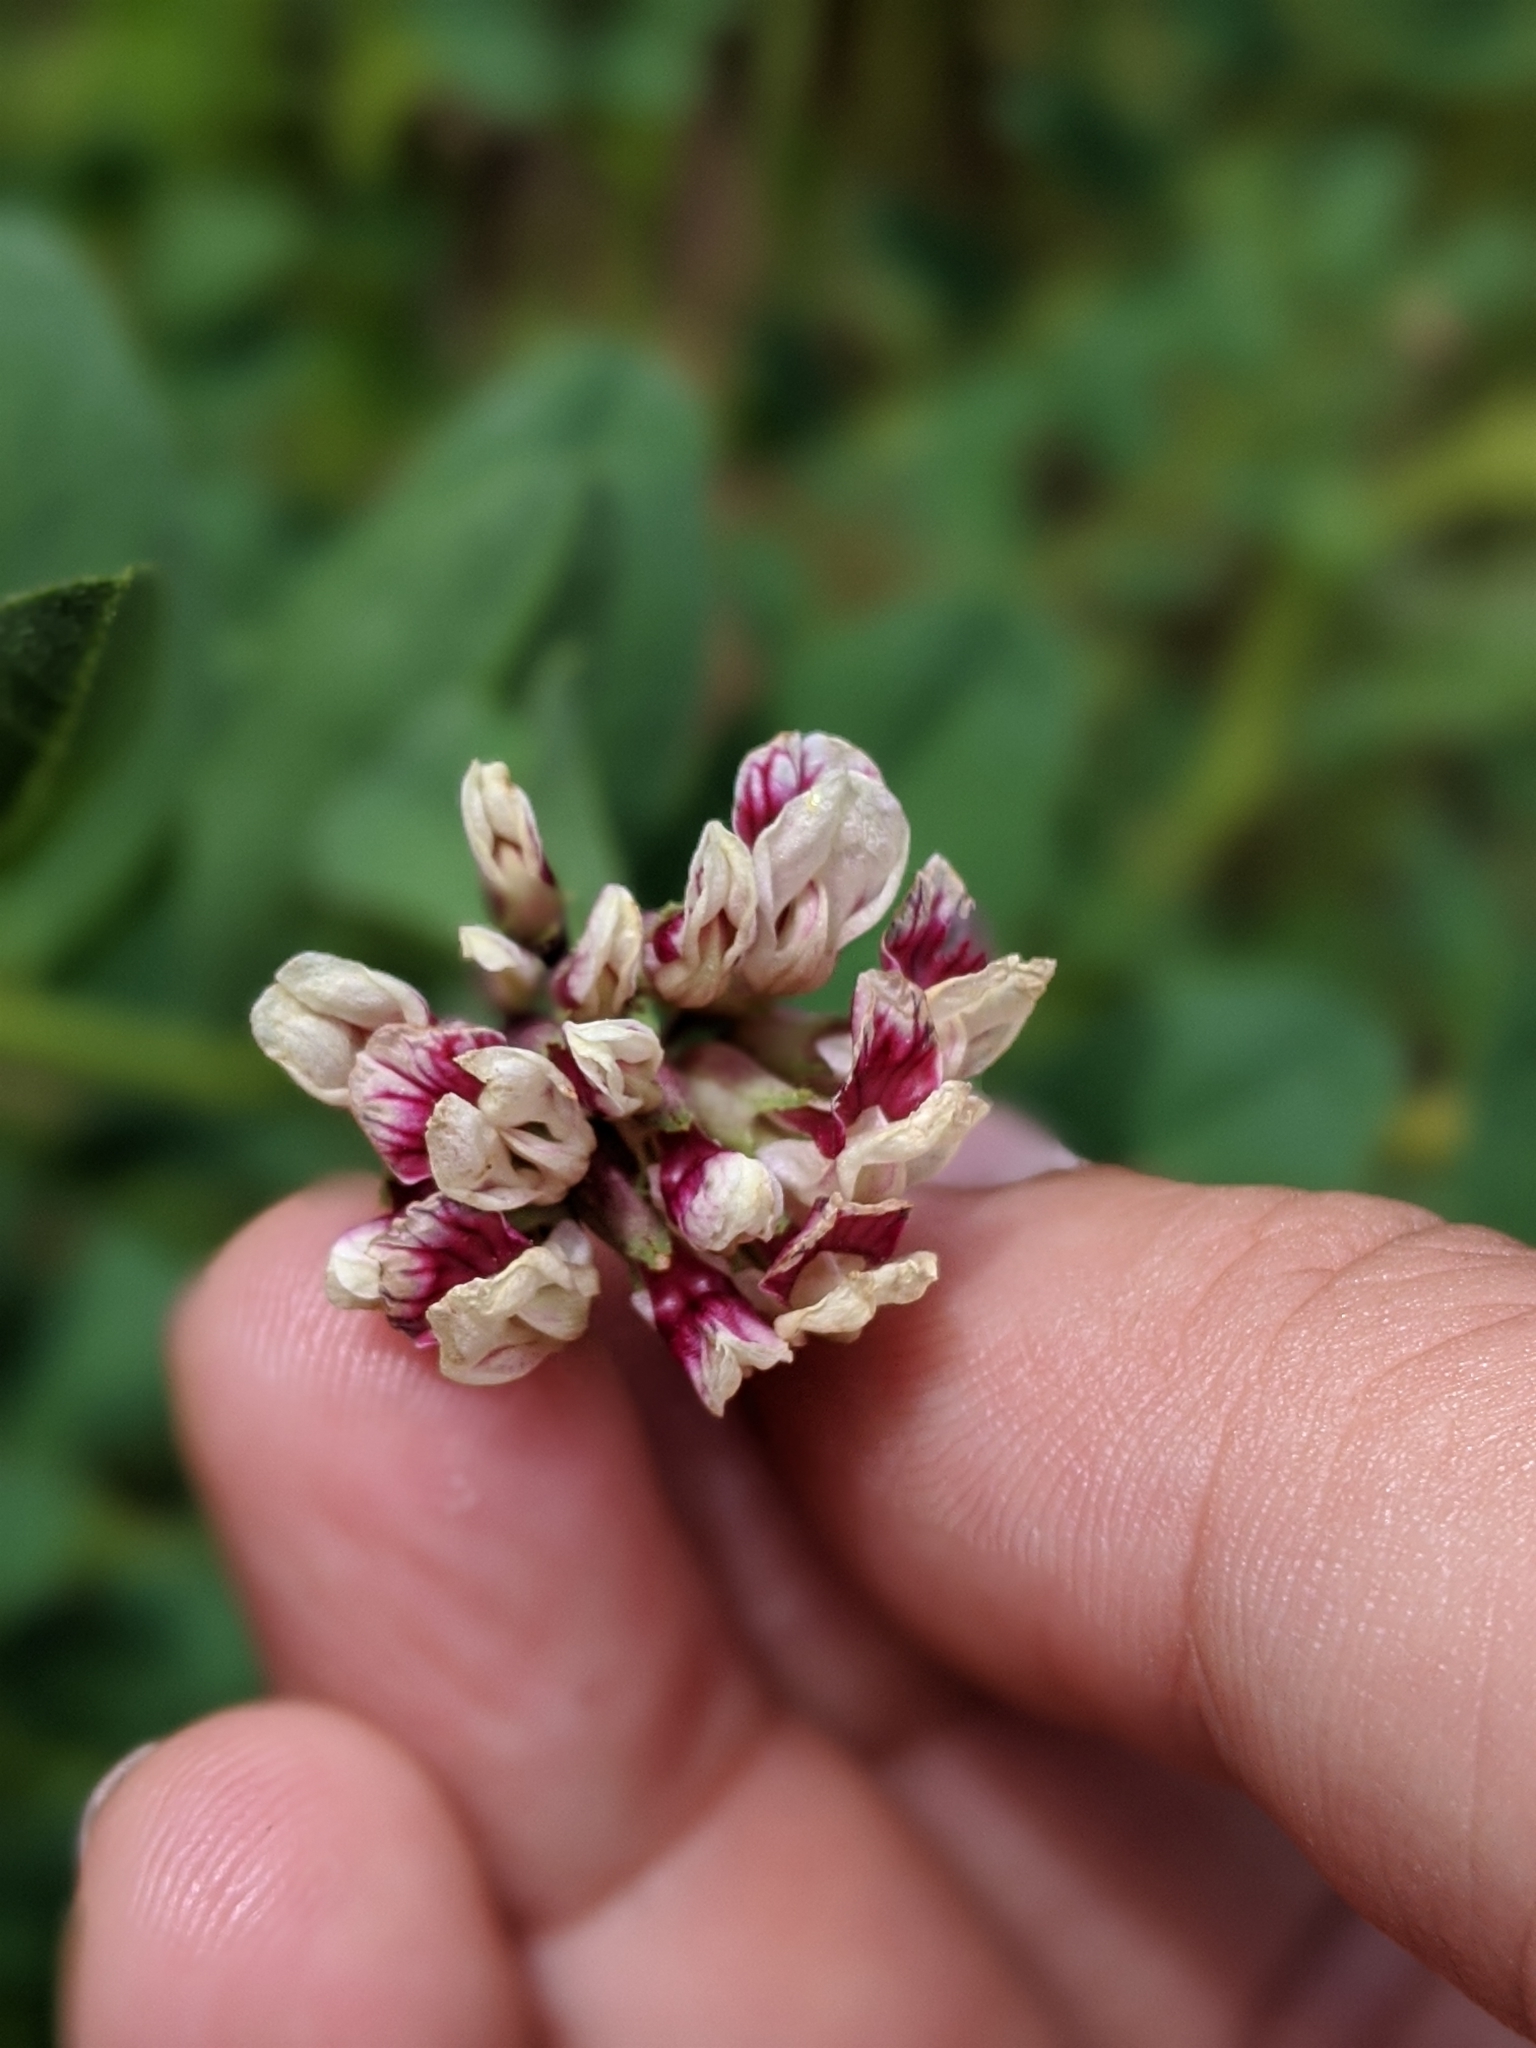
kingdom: Plantae
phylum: Tracheophyta
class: Magnoliopsida
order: Fabales
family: Fabaceae
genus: Hosackia
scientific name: Hosackia stipularis
